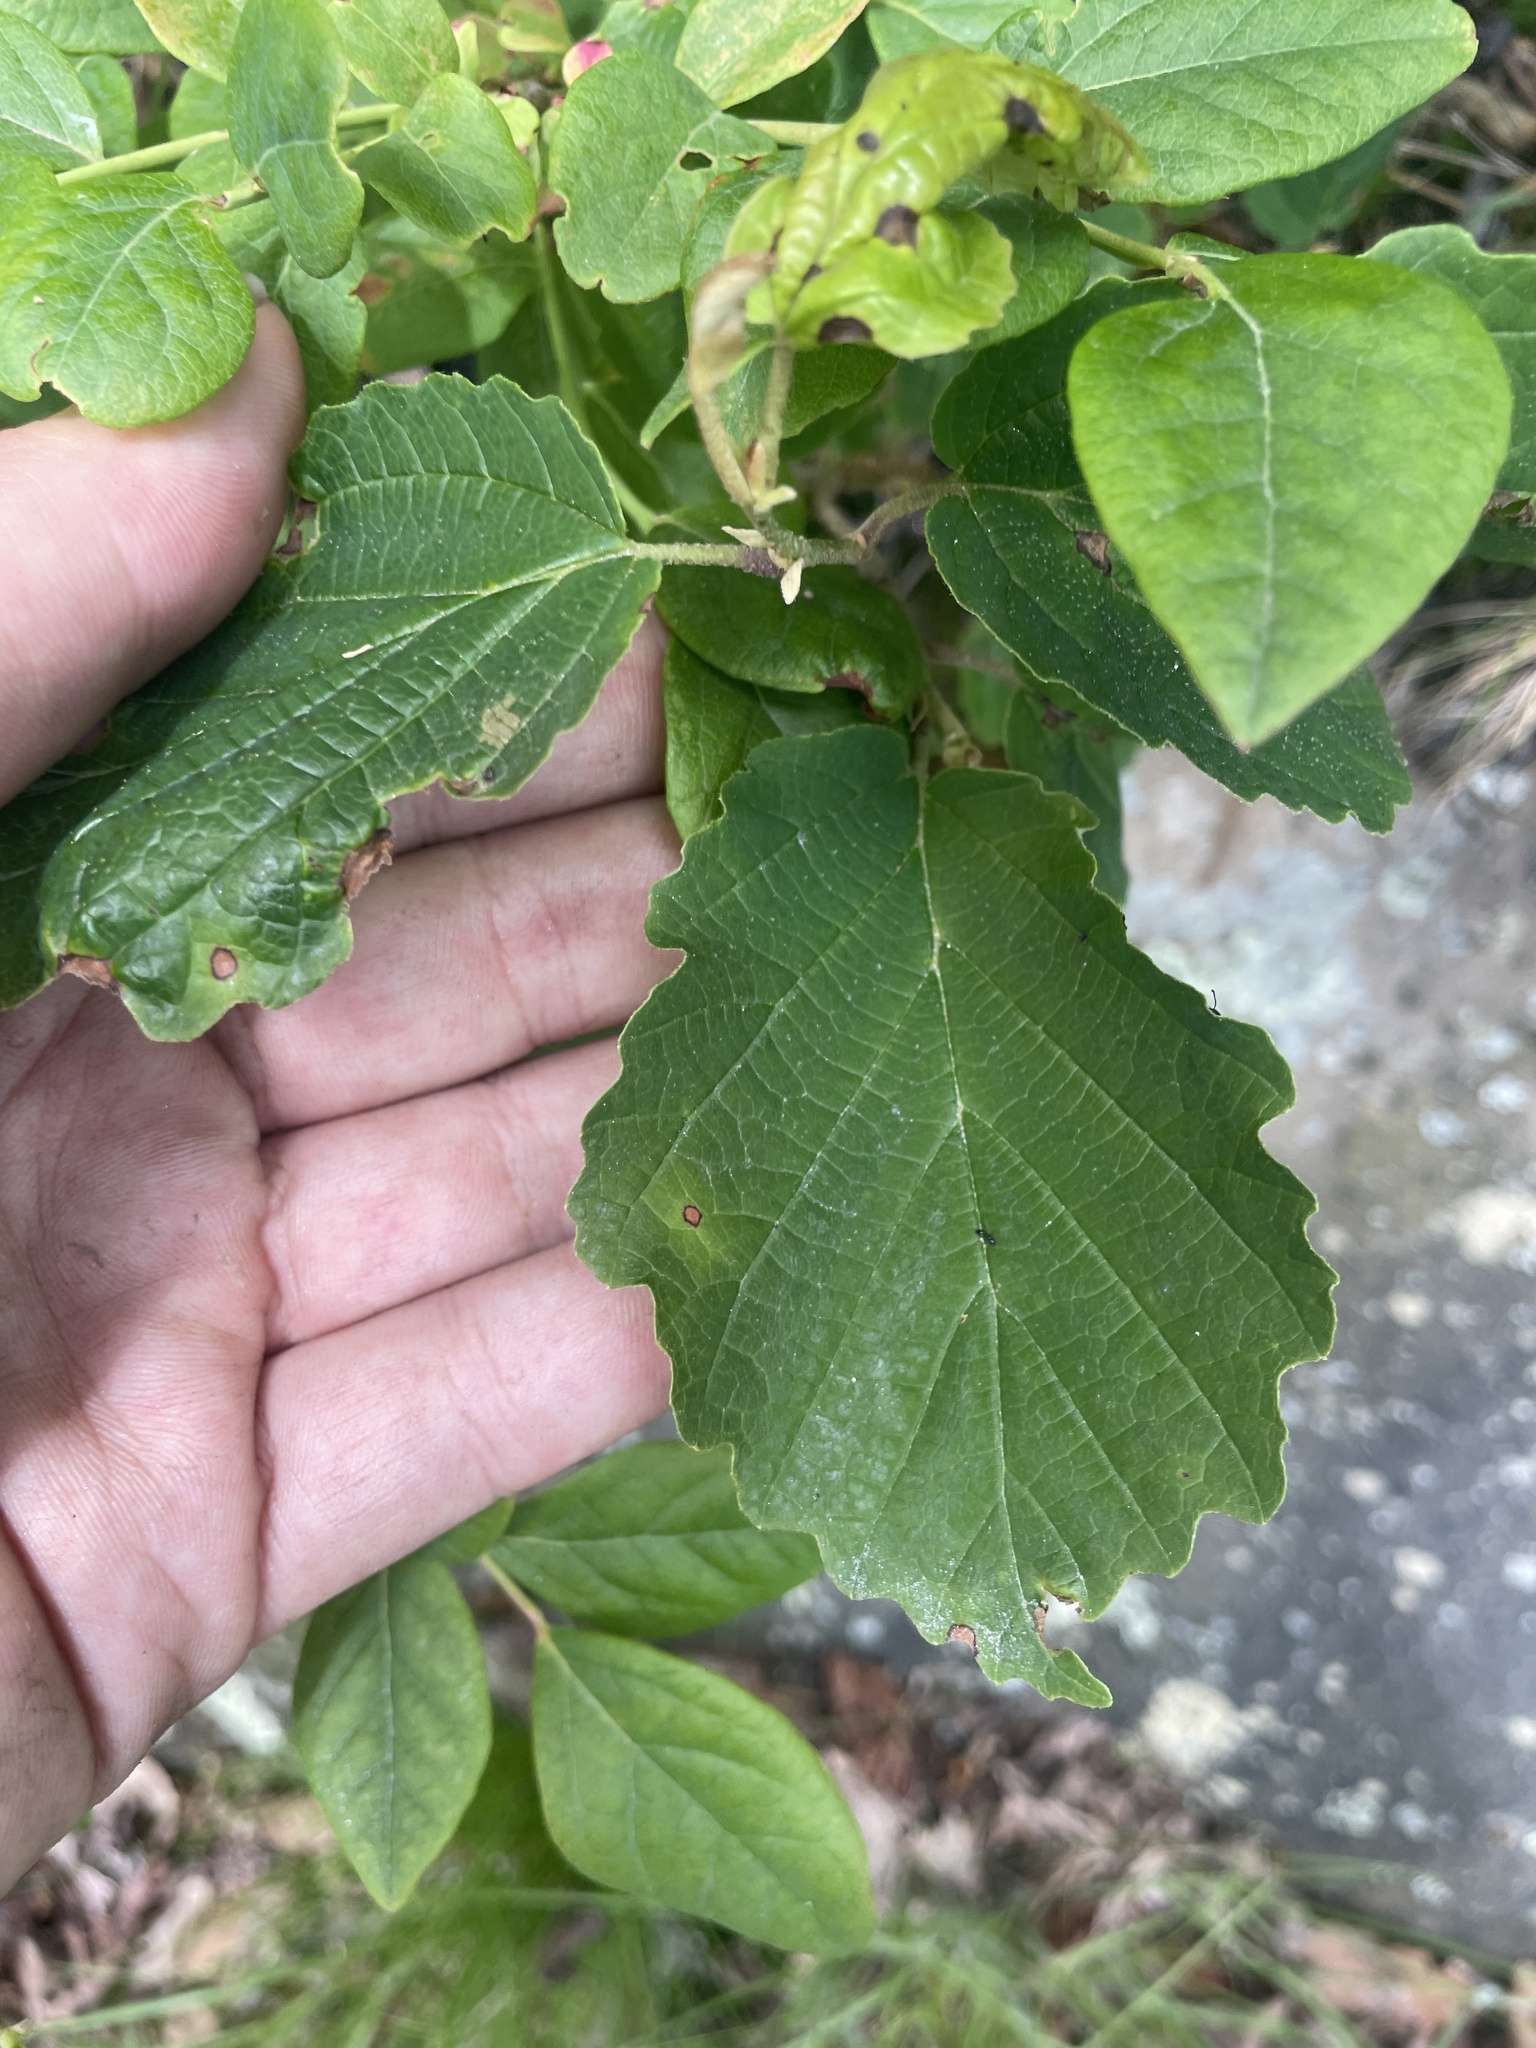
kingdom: Plantae
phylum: Tracheophyta
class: Magnoliopsida
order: Saxifragales
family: Hamamelidaceae
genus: Hamamelis
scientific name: Hamamelis virginiana
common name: Witch-hazel
